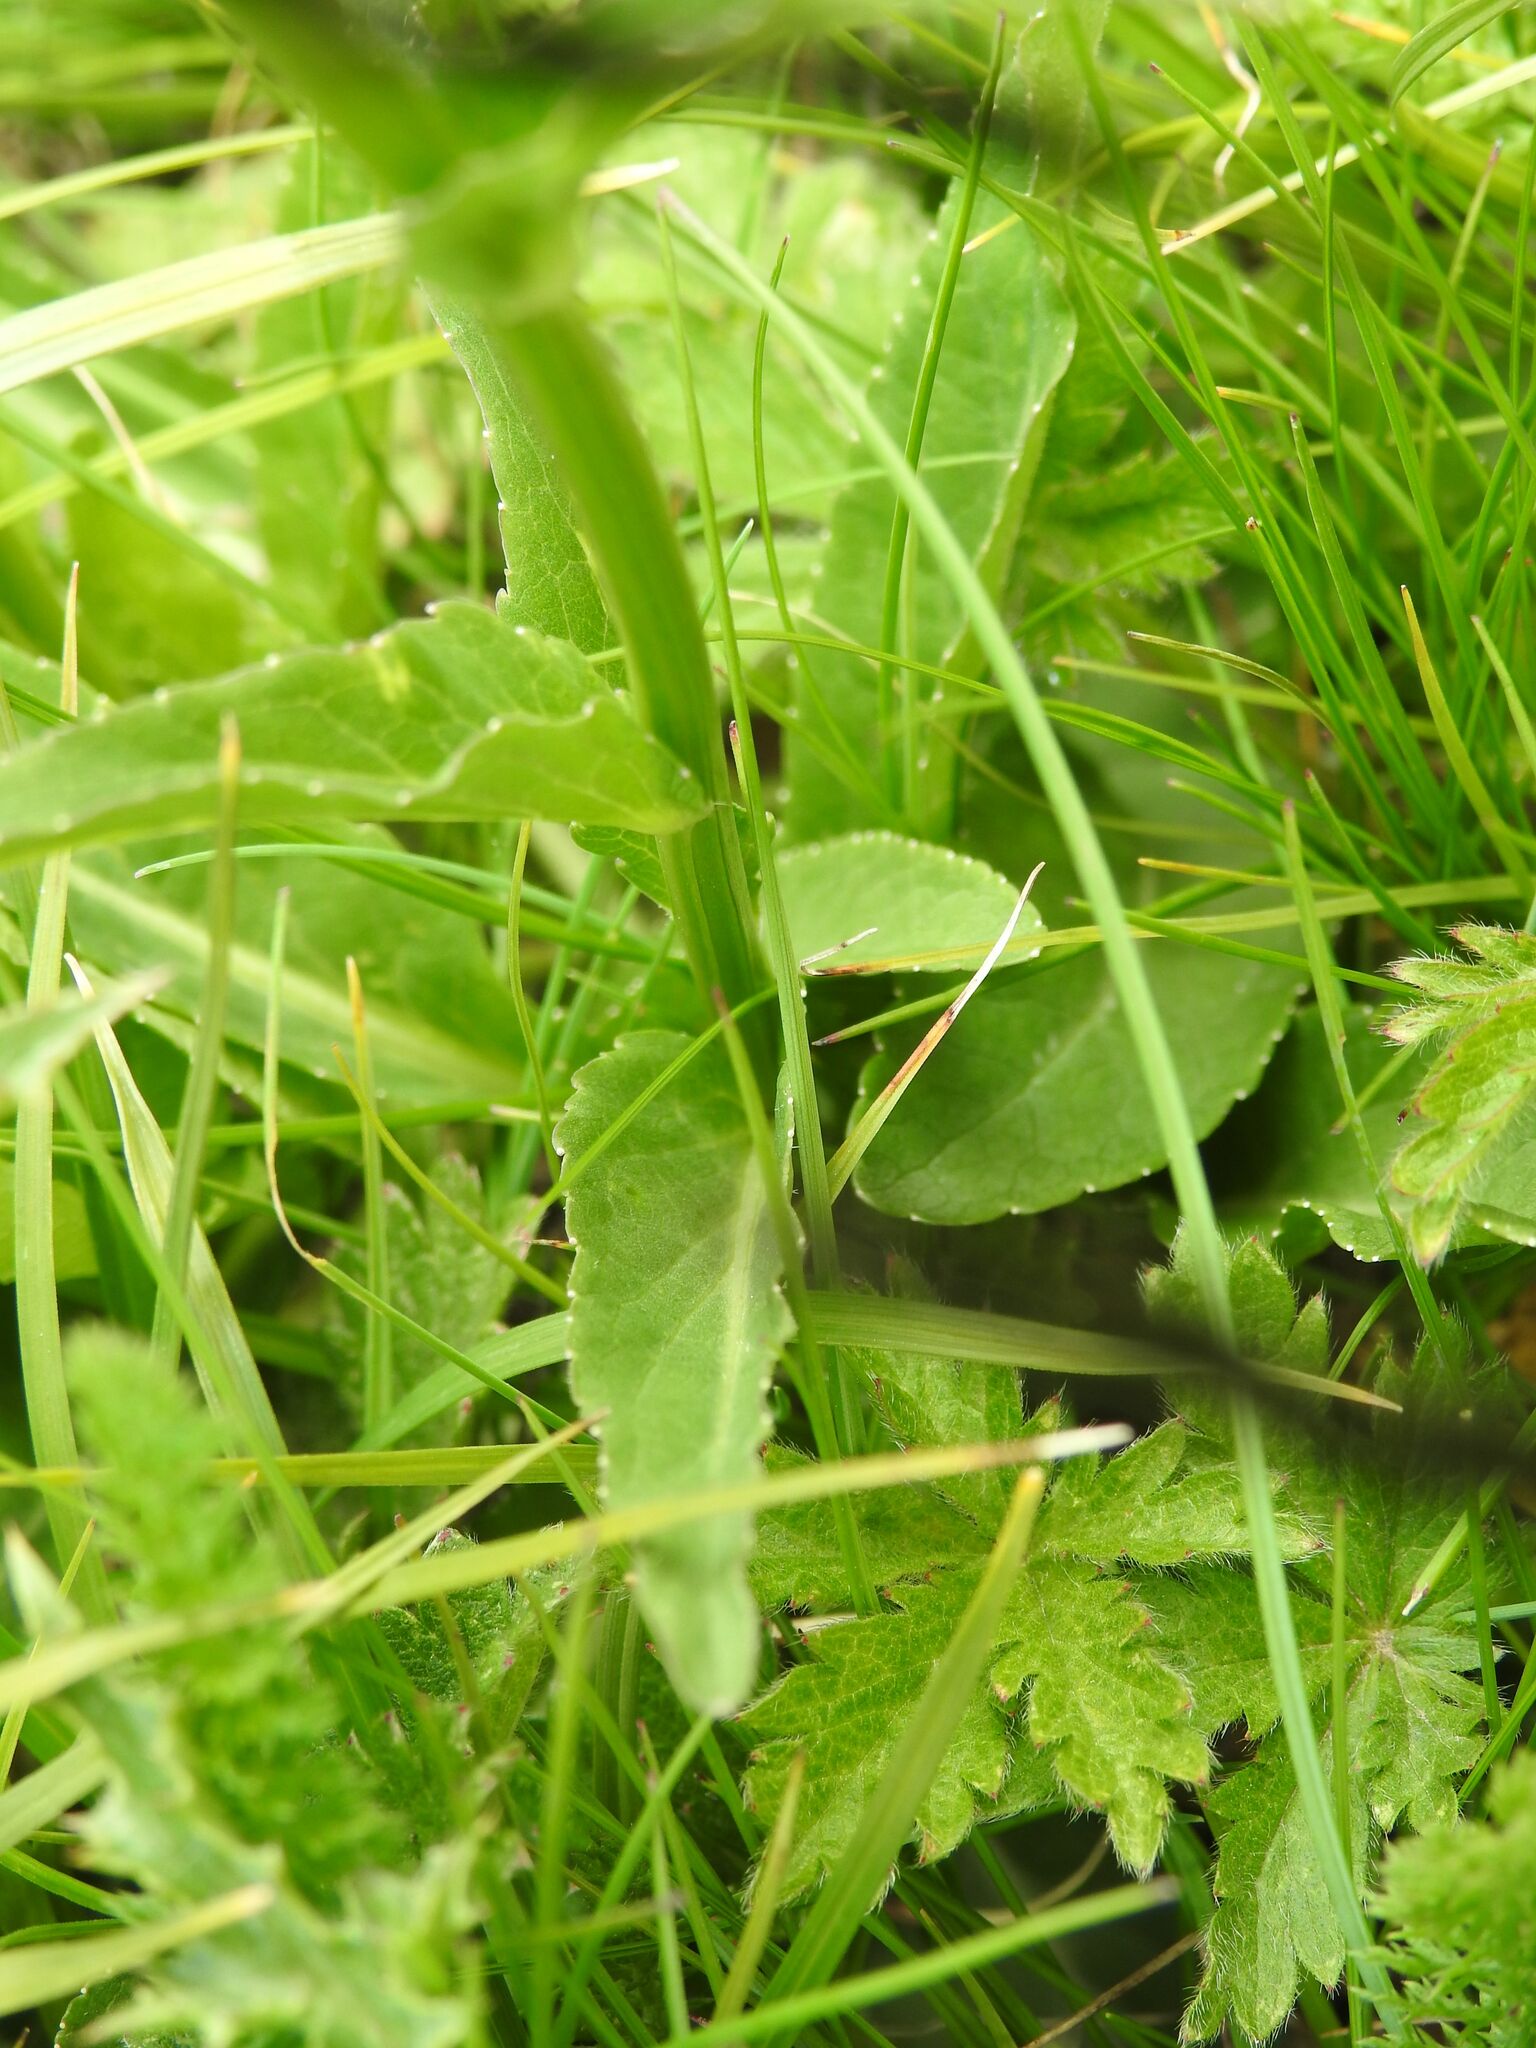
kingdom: Plantae
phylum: Tracheophyta
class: Magnoliopsida
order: Asterales
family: Campanulaceae
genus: Phyteuma
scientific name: Phyteuma orbiculare
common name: Round-headed rampion
